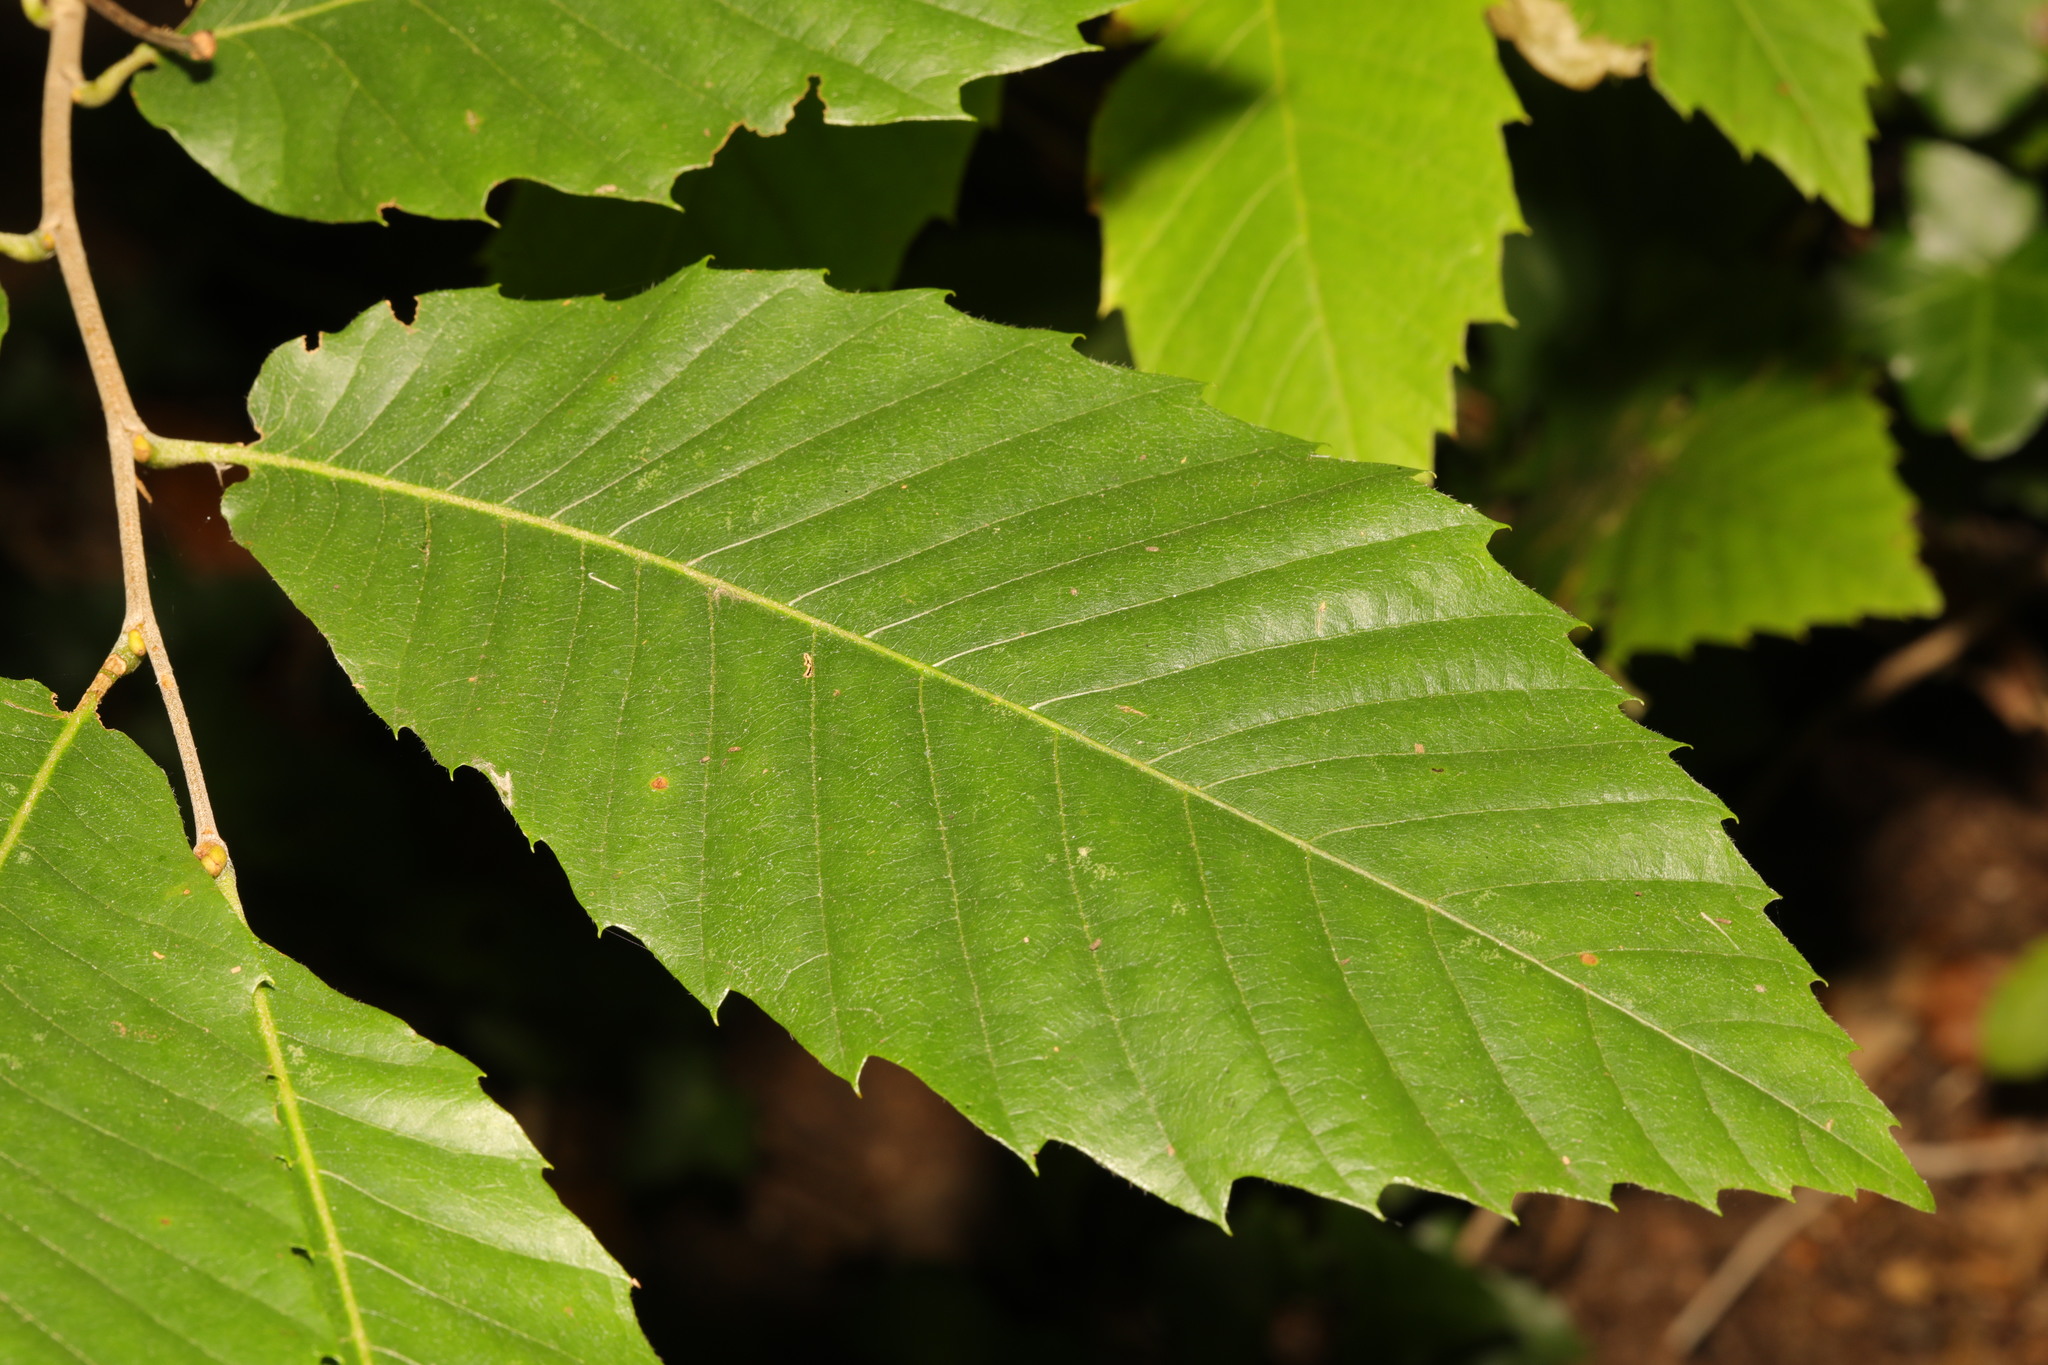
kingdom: Plantae
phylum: Tracheophyta
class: Magnoliopsida
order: Fagales
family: Fagaceae
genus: Castanea
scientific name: Castanea sativa
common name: Sweet chestnut
